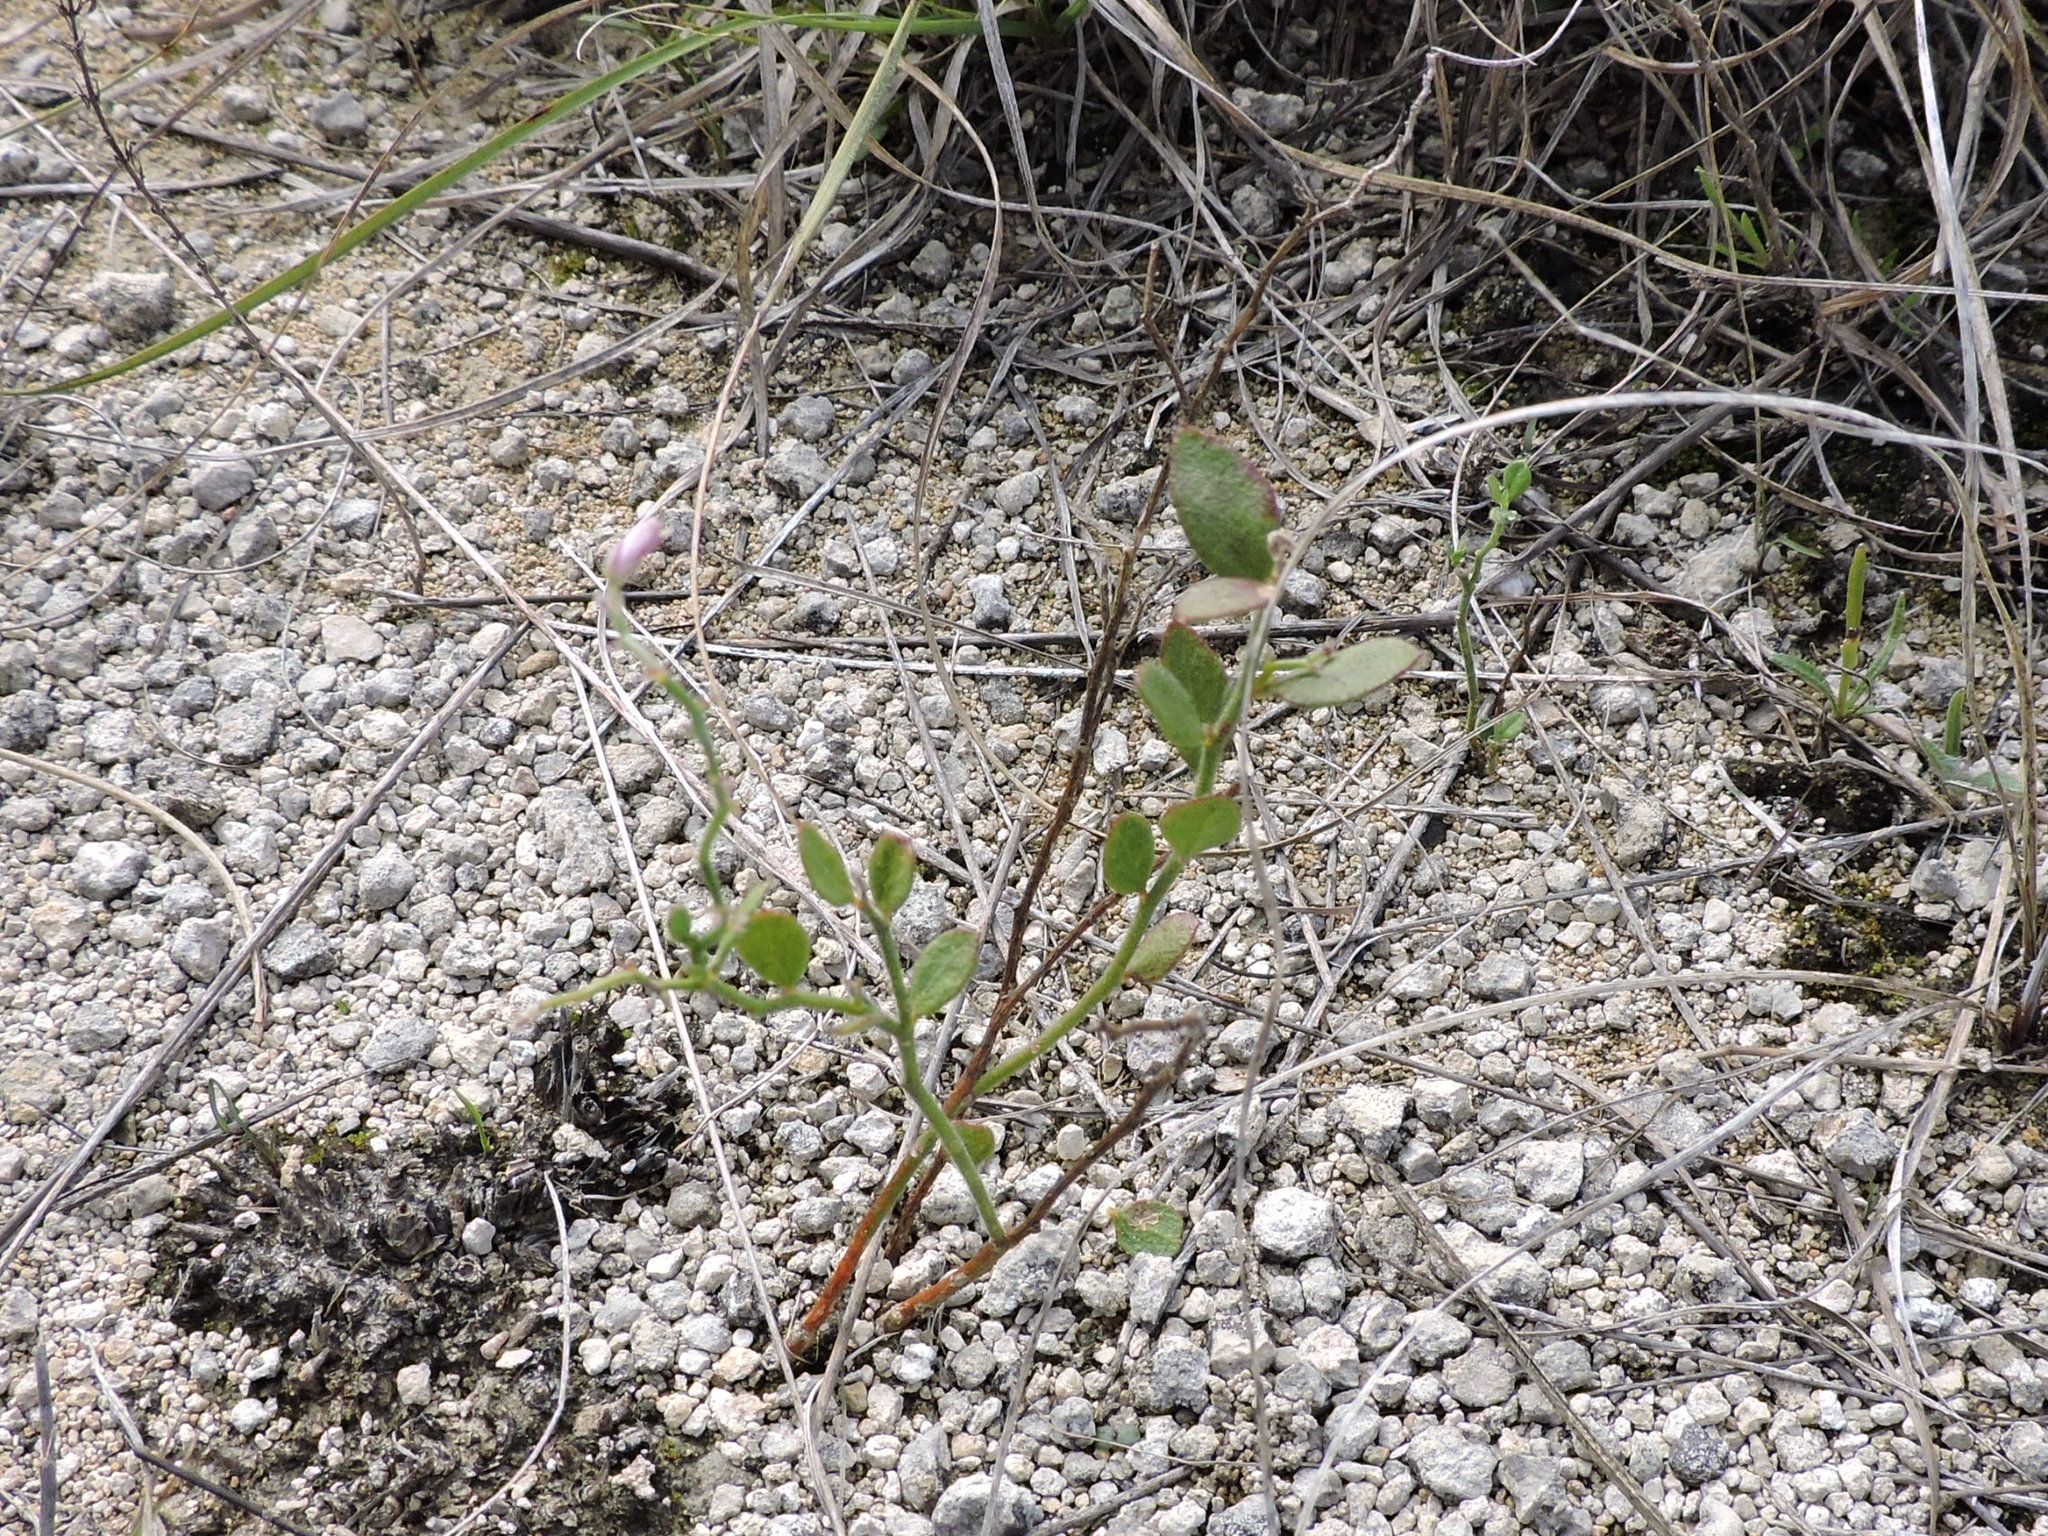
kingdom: Plantae
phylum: Tracheophyta
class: Magnoliopsida
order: Fabales
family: Polygalaceae
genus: Rhinotropis
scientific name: Rhinotropis lindheimeri
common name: Shrubby milkwort
